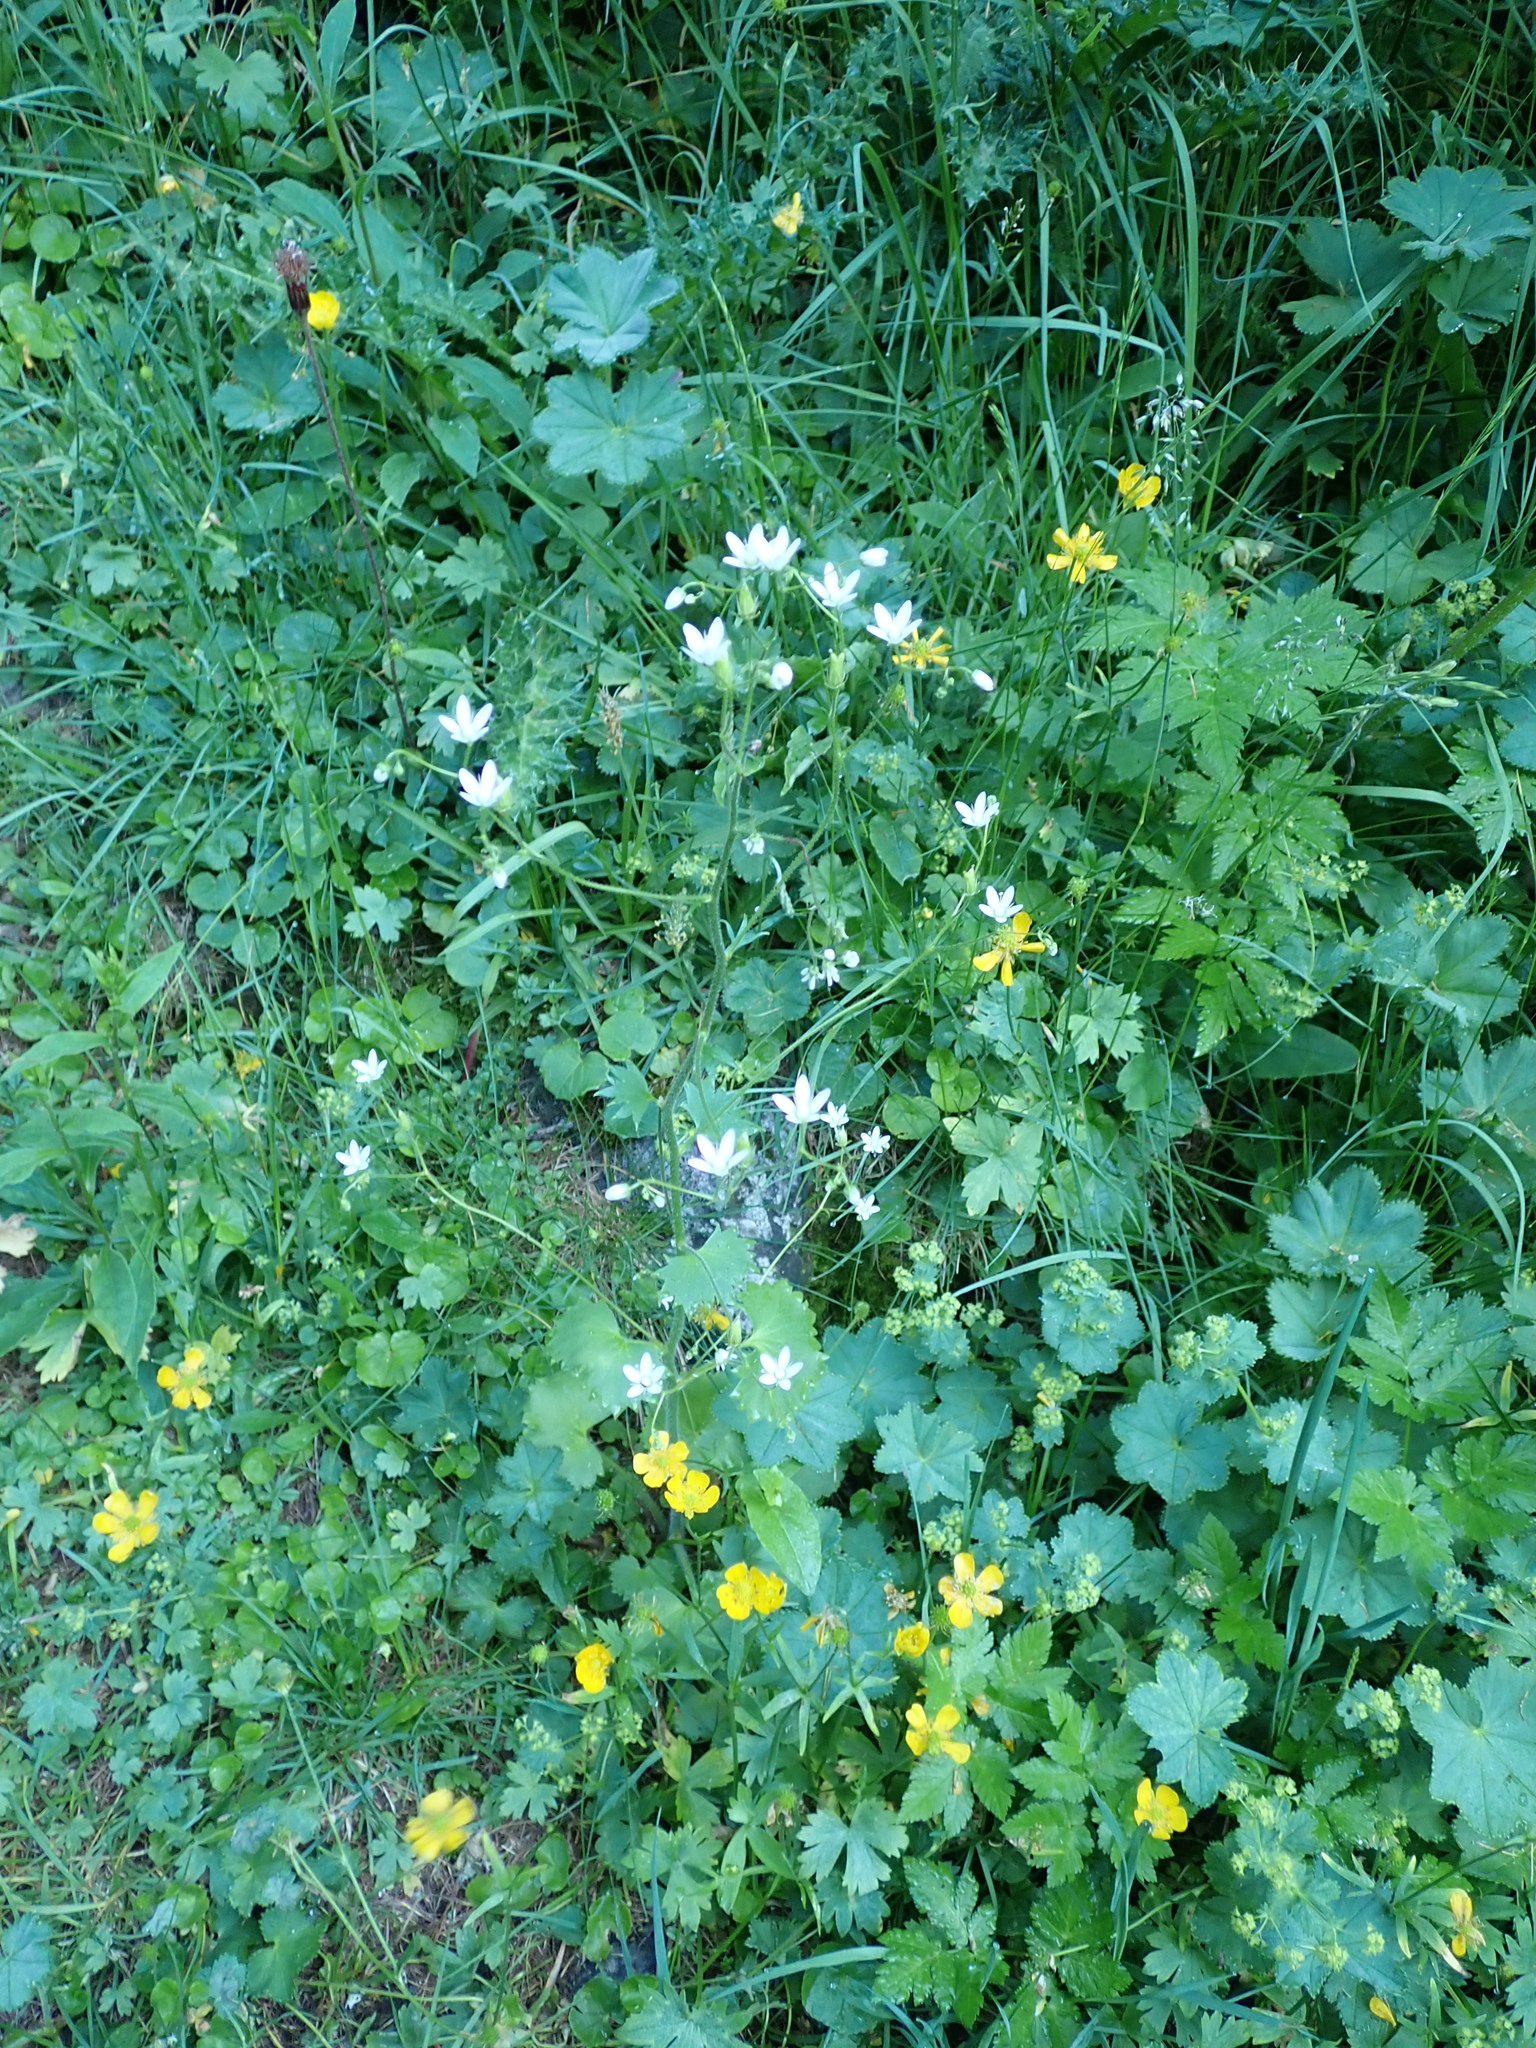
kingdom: Plantae
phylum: Tracheophyta
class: Magnoliopsida
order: Saxifragales
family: Saxifragaceae
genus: Saxifraga
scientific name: Saxifraga rotundifolia
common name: Round-leaved saxifrage
